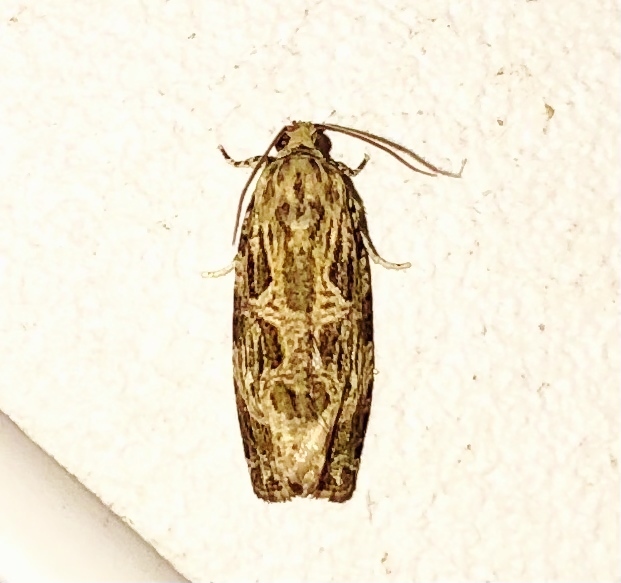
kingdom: Animalia
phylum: Arthropoda
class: Insecta
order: Lepidoptera
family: Tortricidae
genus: Phaecasiophora
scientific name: Phaecasiophora confixana
